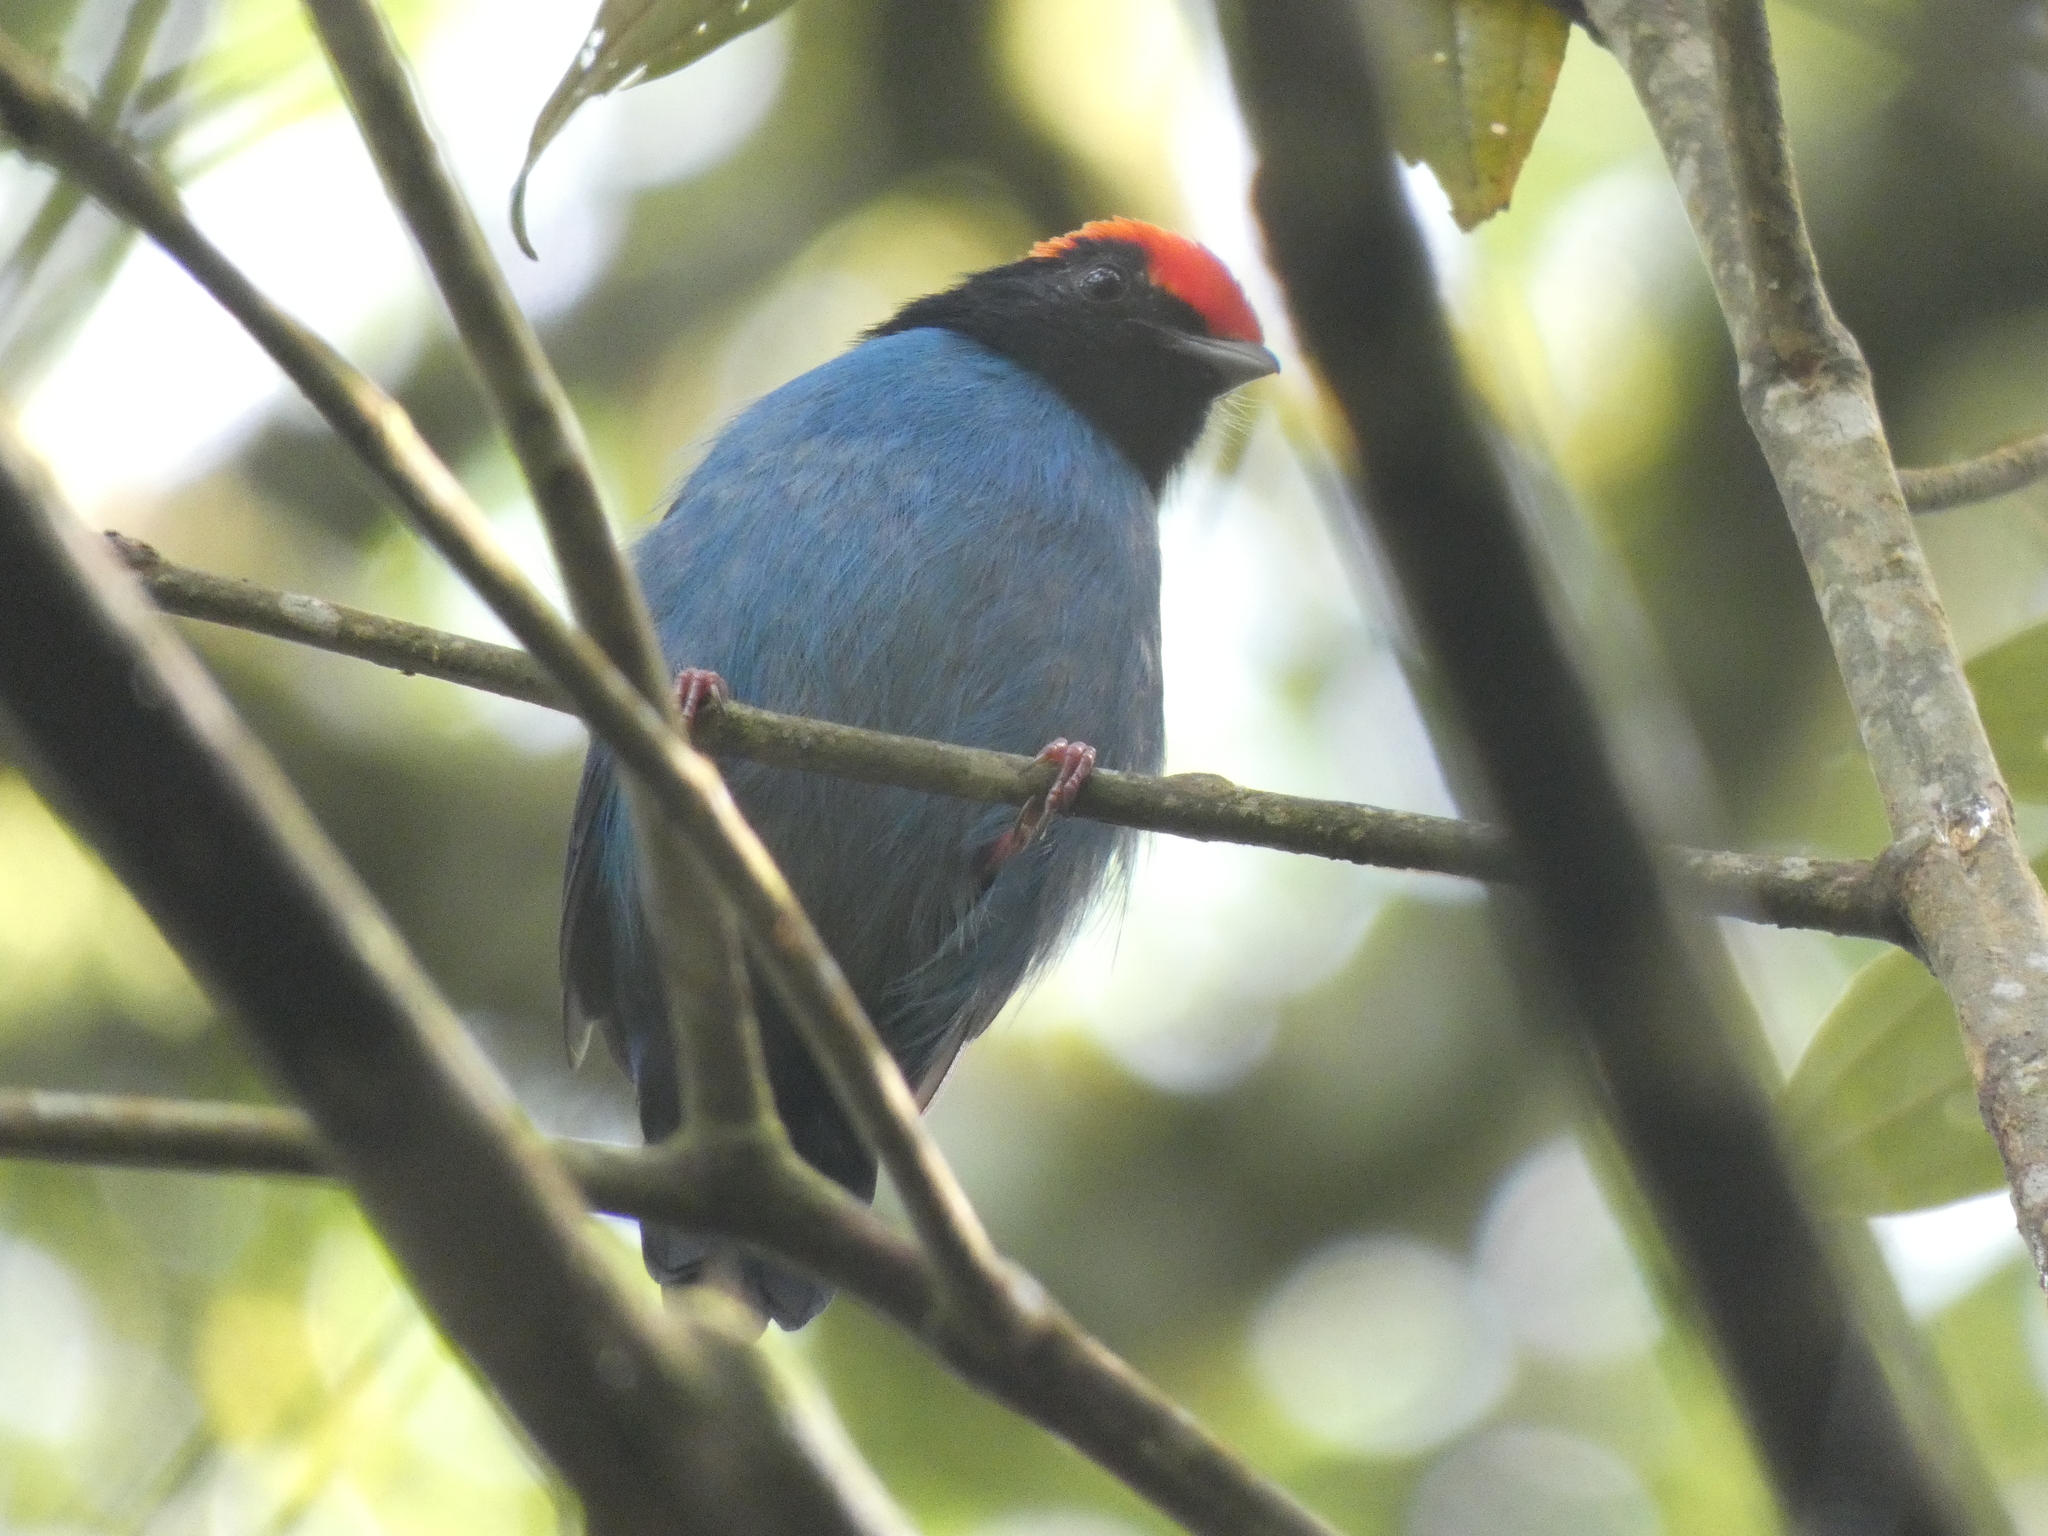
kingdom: Animalia
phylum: Chordata
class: Aves
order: Passeriformes
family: Pipridae
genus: Chiroxiphia
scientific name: Chiroxiphia caudata
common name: Blue manakin
